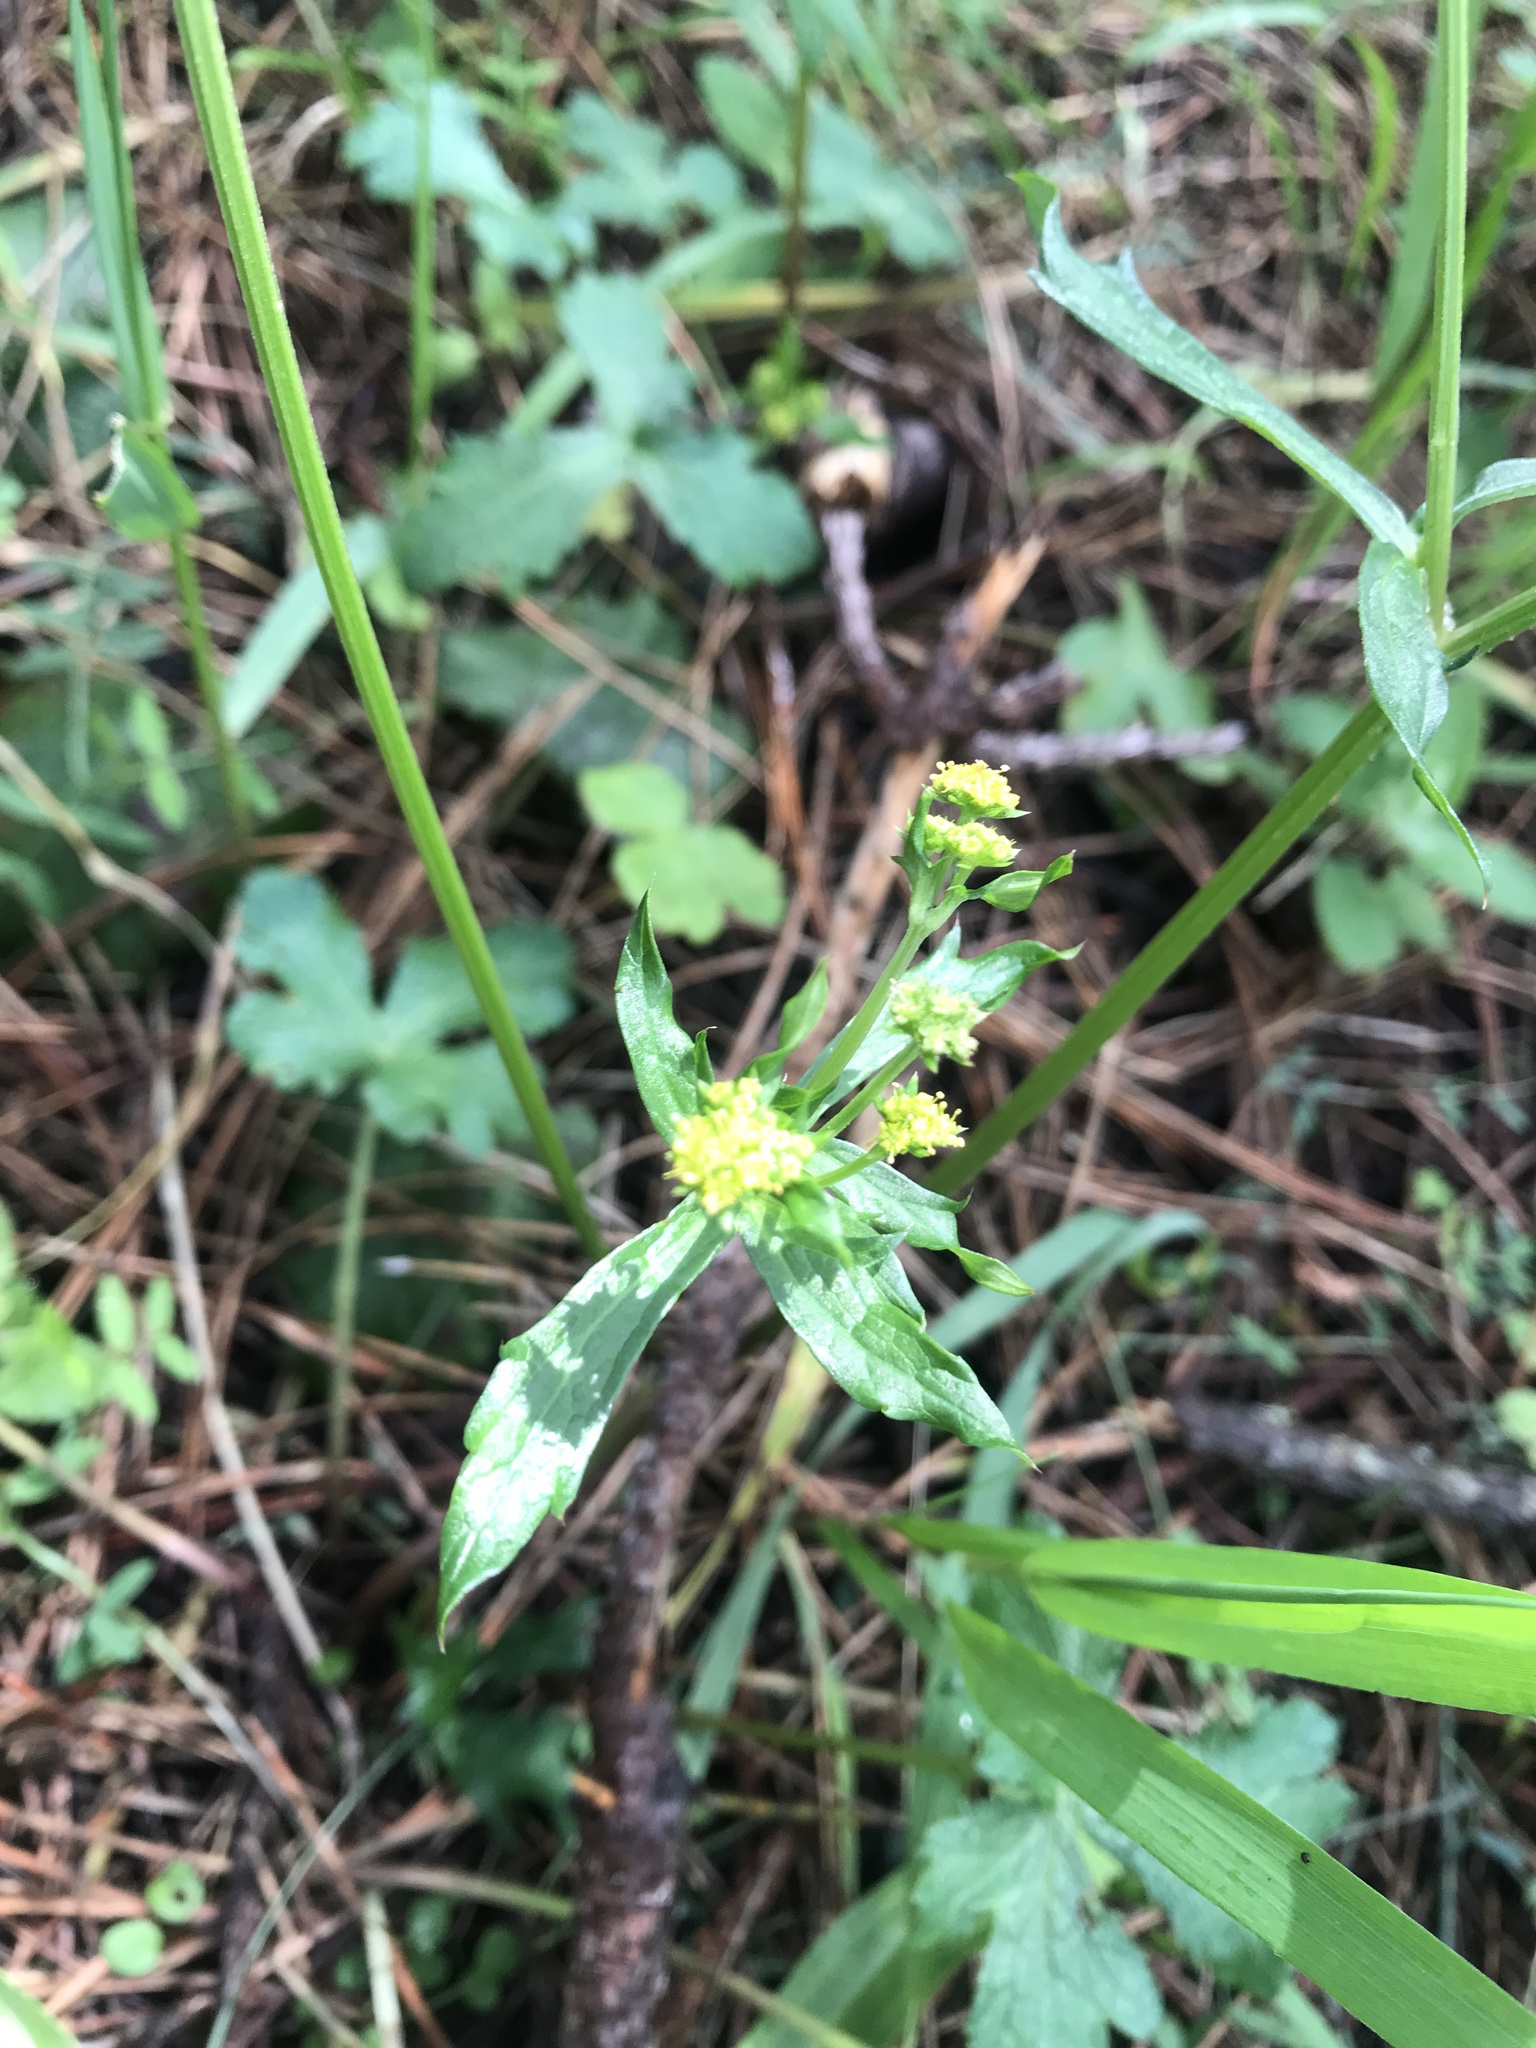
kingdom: Plantae
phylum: Tracheophyta
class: Magnoliopsida
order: Apiales
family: Apiaceae
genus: Sanicula
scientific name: Sanicula crassicaulis
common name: Western snakeroot
